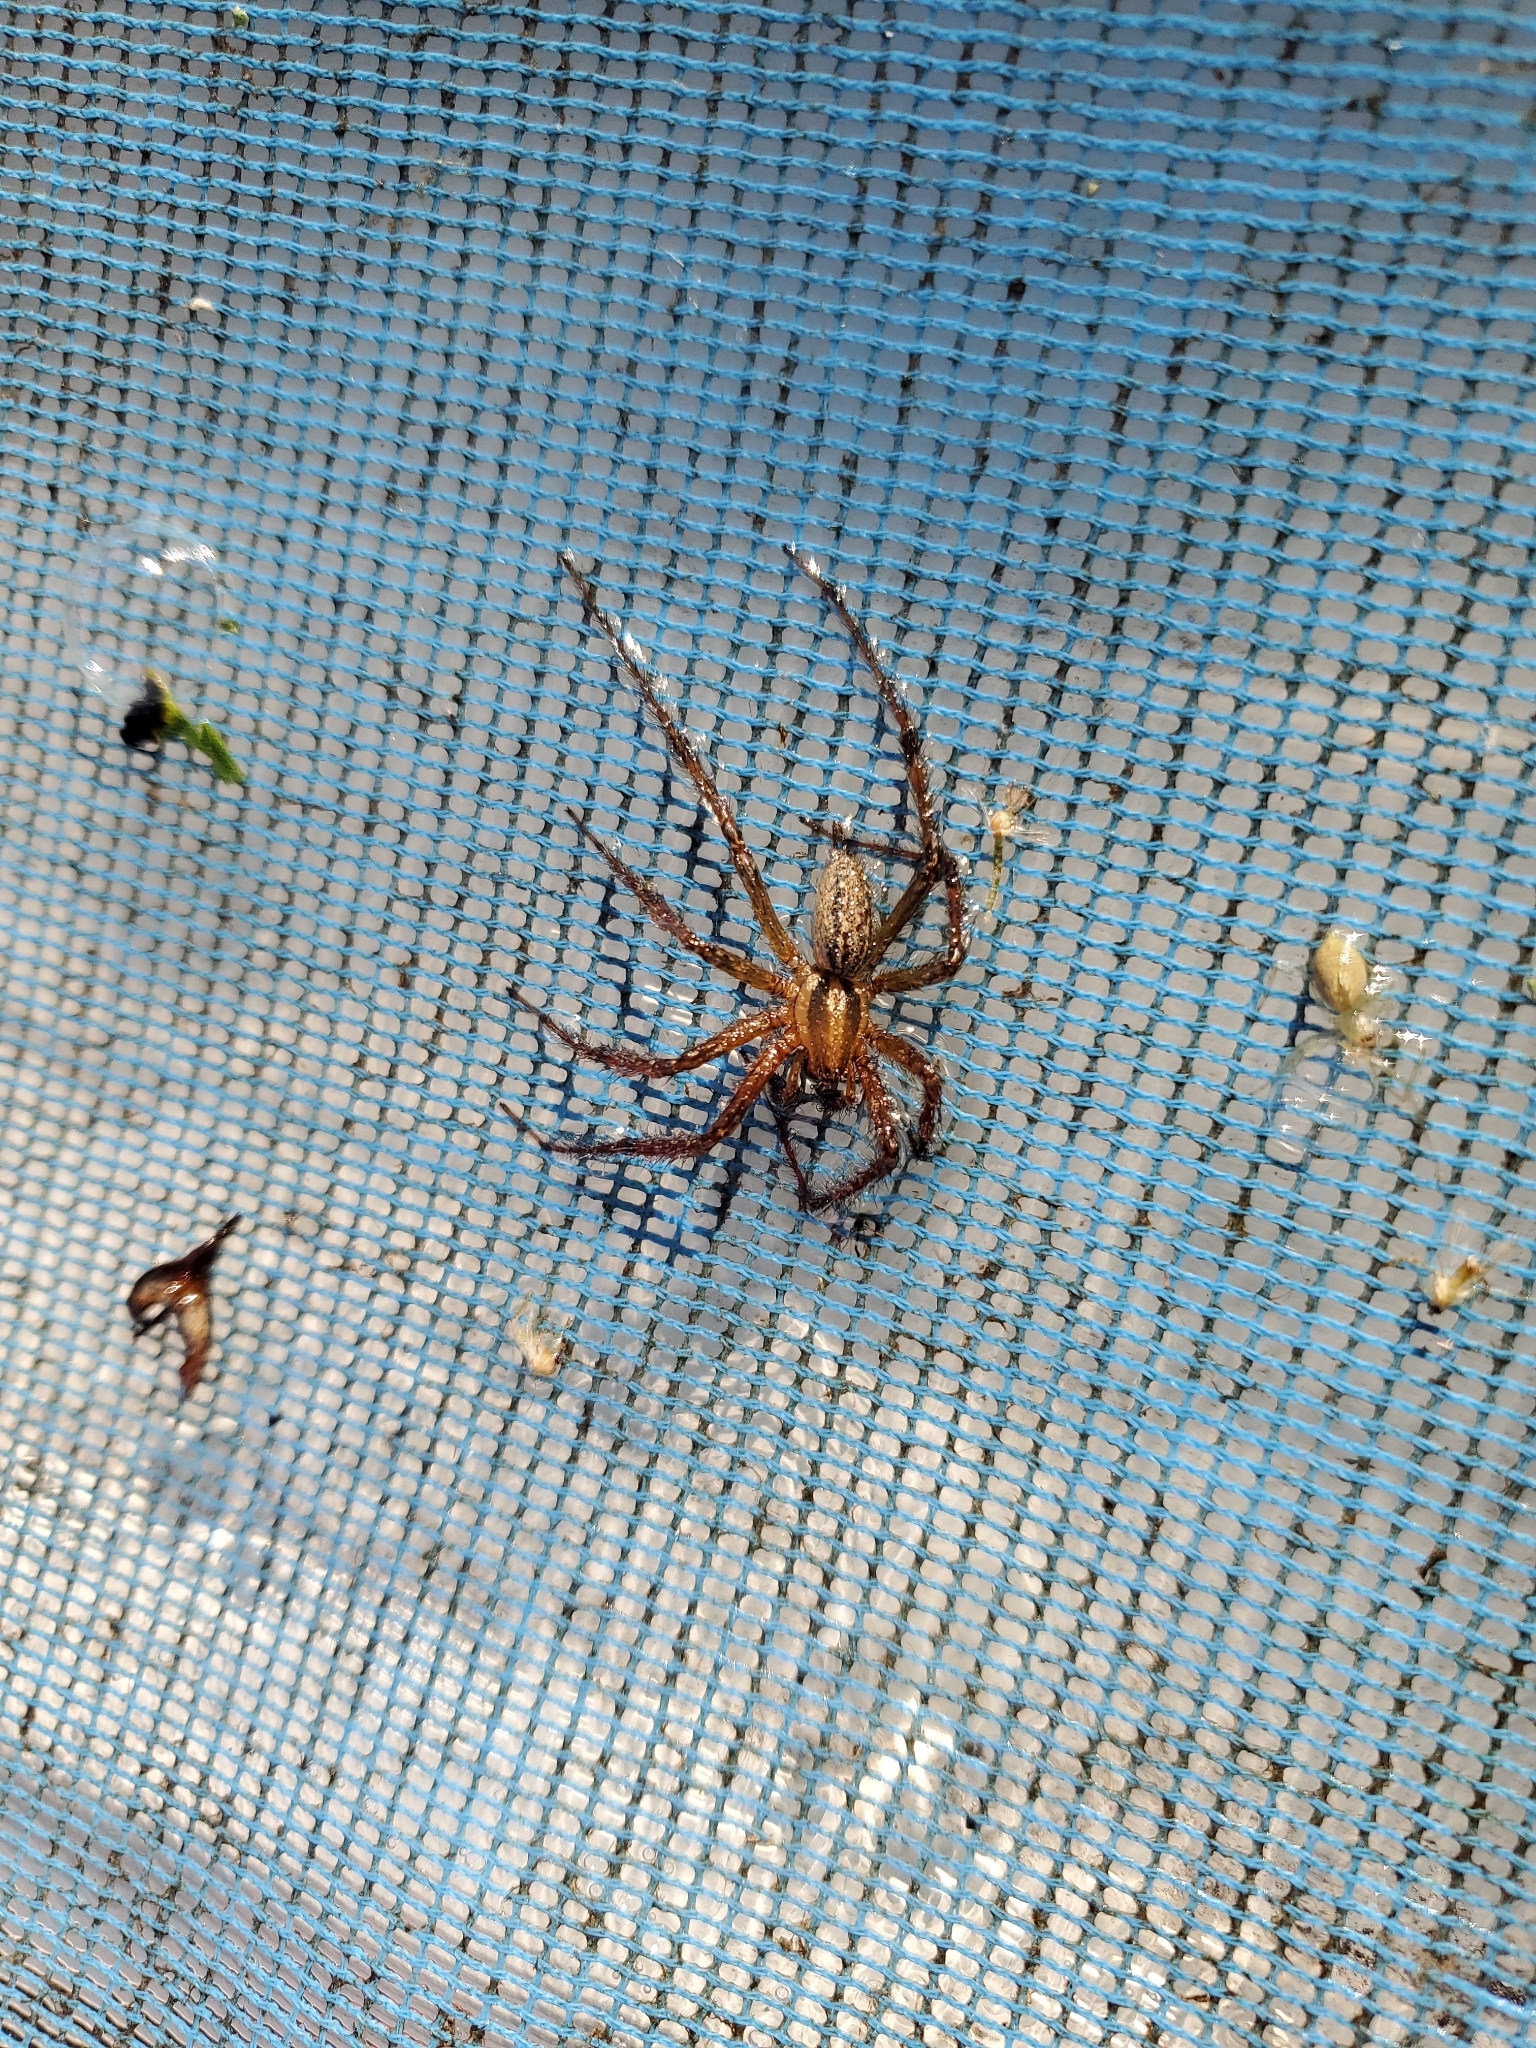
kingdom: Animalia
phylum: Arthropoda
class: Arachnida
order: Araneae
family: Agelenidae
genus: Agelenopsis
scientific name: Agelenopsis
